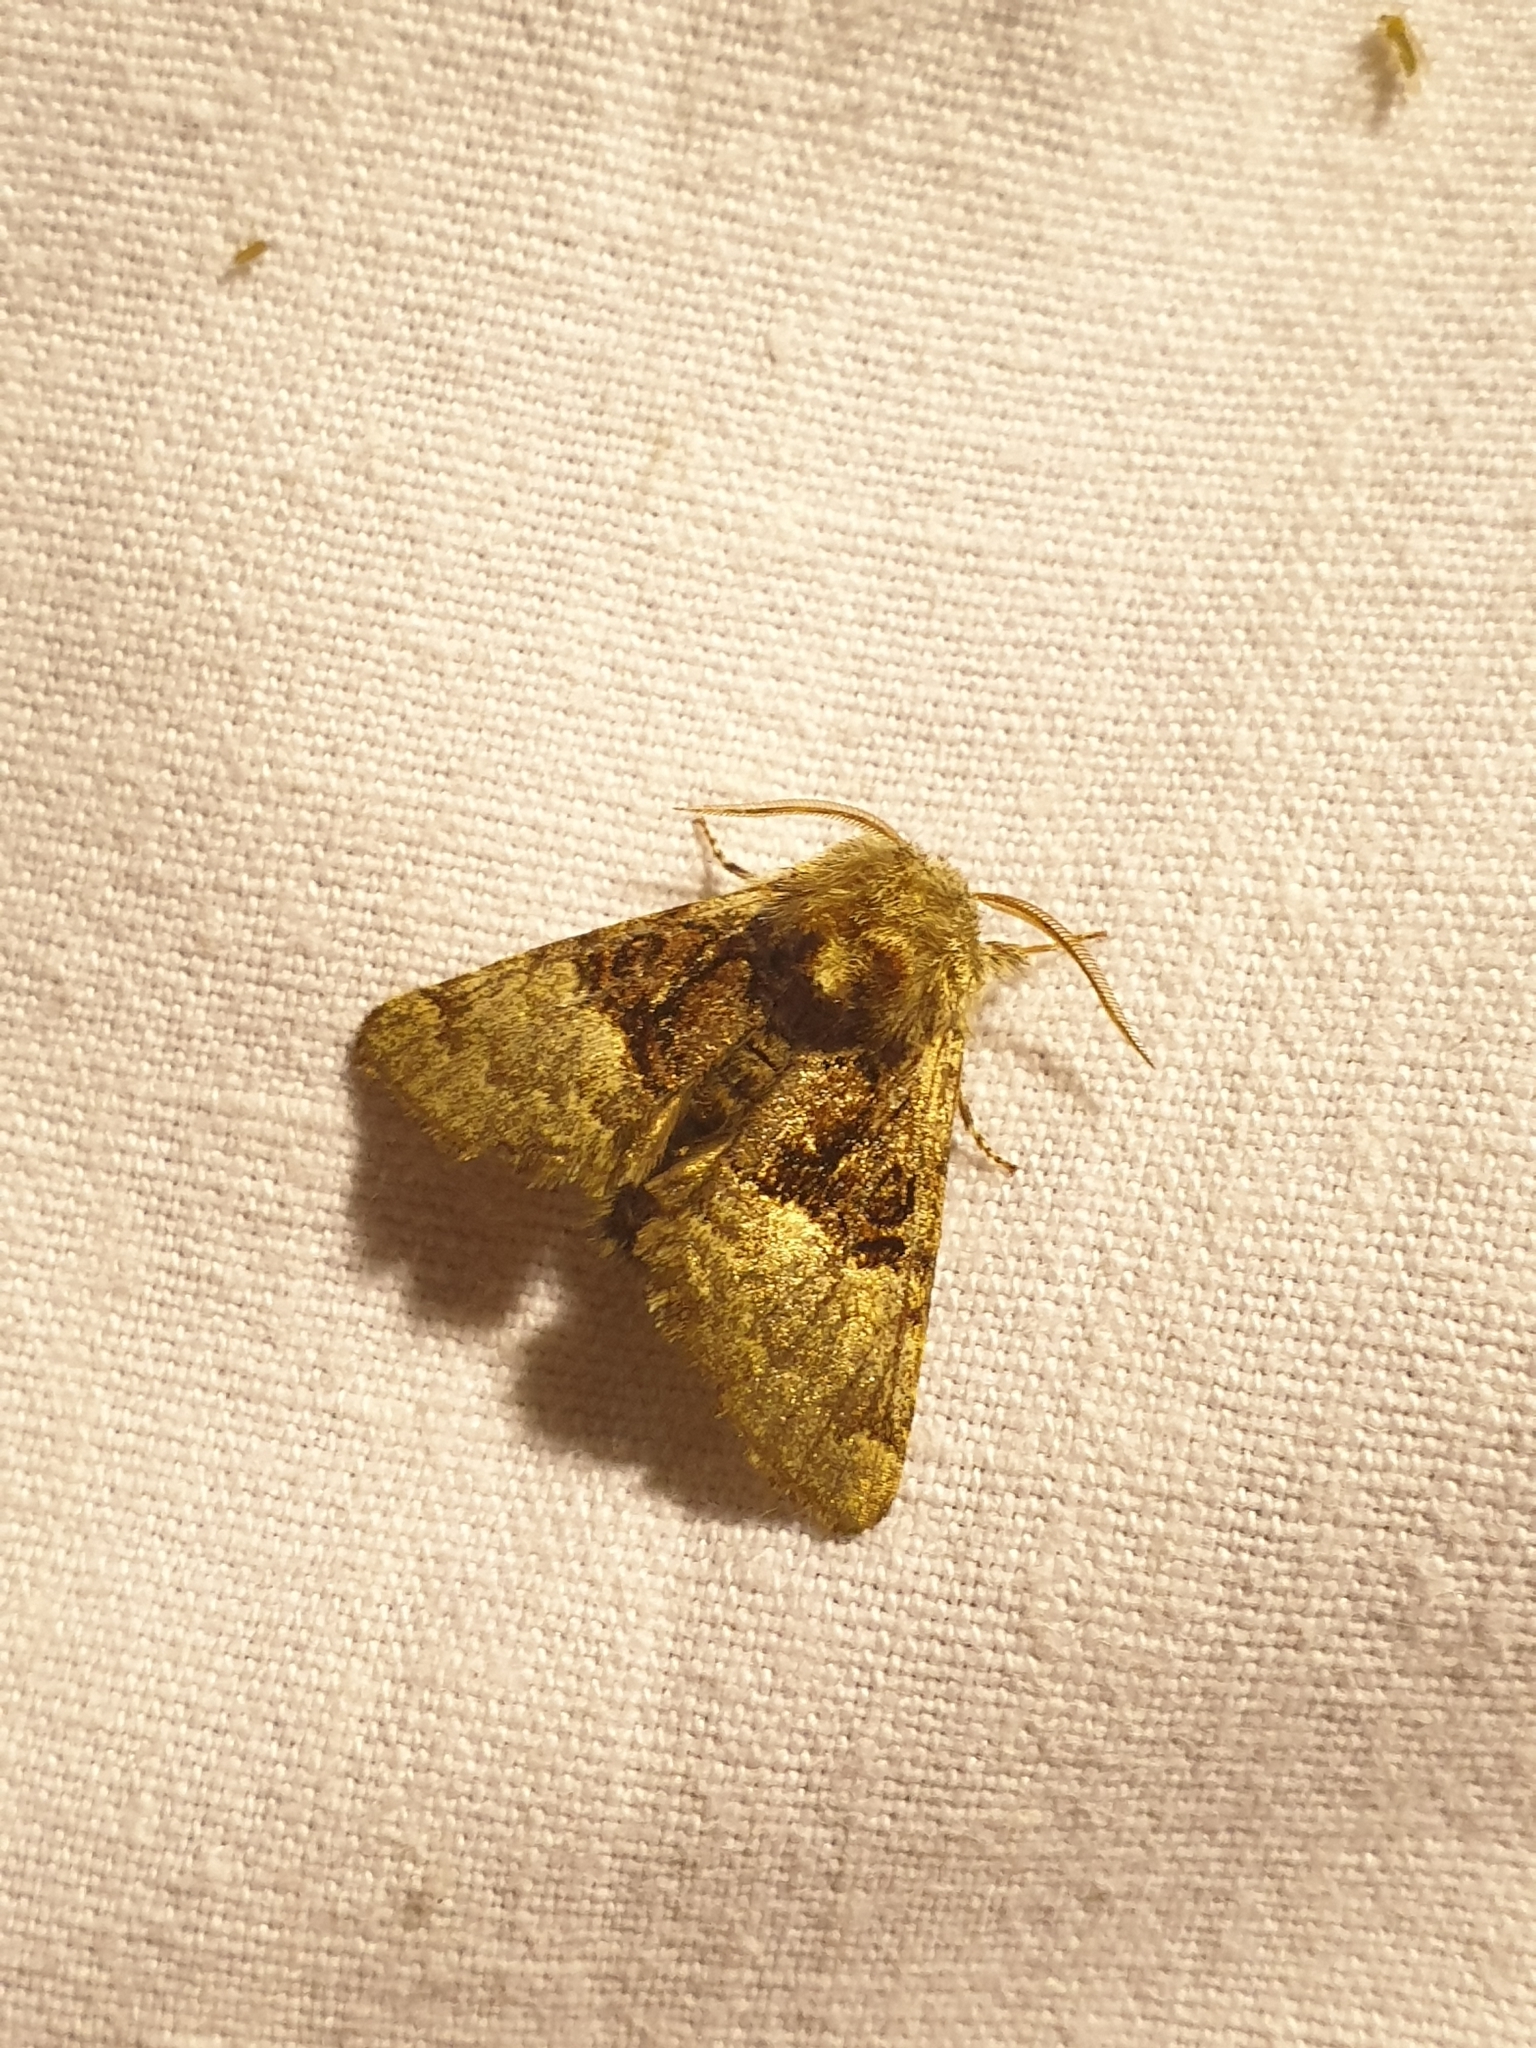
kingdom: Animalia
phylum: Arthropoda
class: Insecta
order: Lepidoptera
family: Noctuidae
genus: Colocasia
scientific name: Colocasia coryli
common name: Nut-tree tussock
